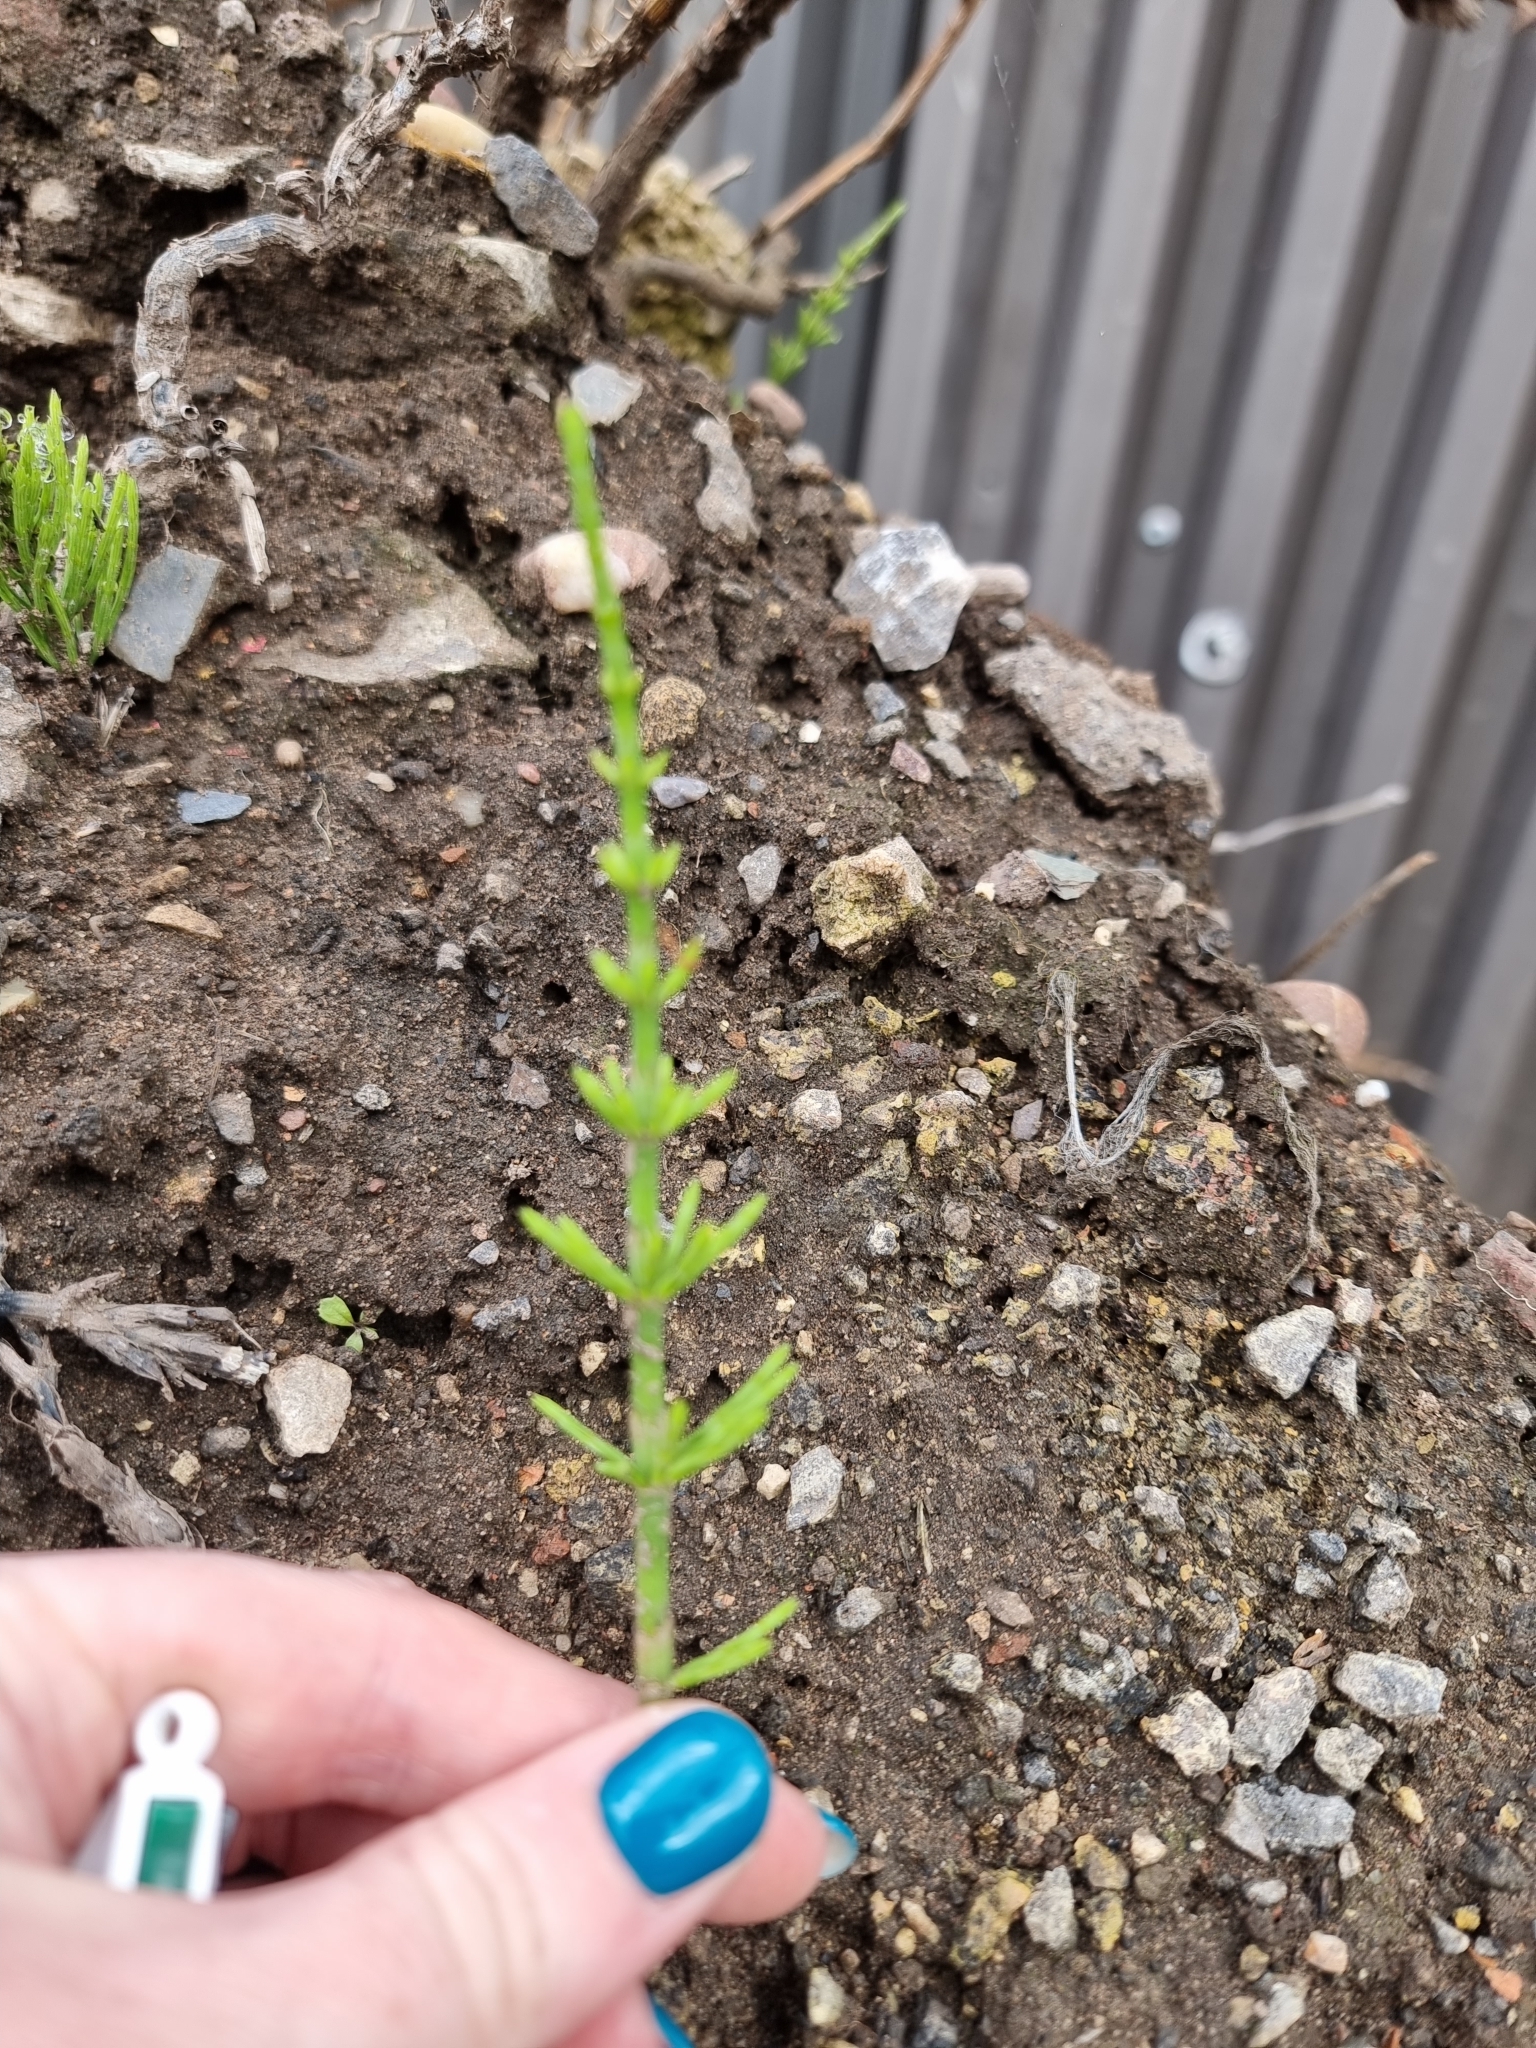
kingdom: Plantae
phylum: Tracheophyta
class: Polypodiopsida
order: Equisetales
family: Equisetaceae
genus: Equisetum
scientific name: Equisetum arvense
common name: Field horsetail
